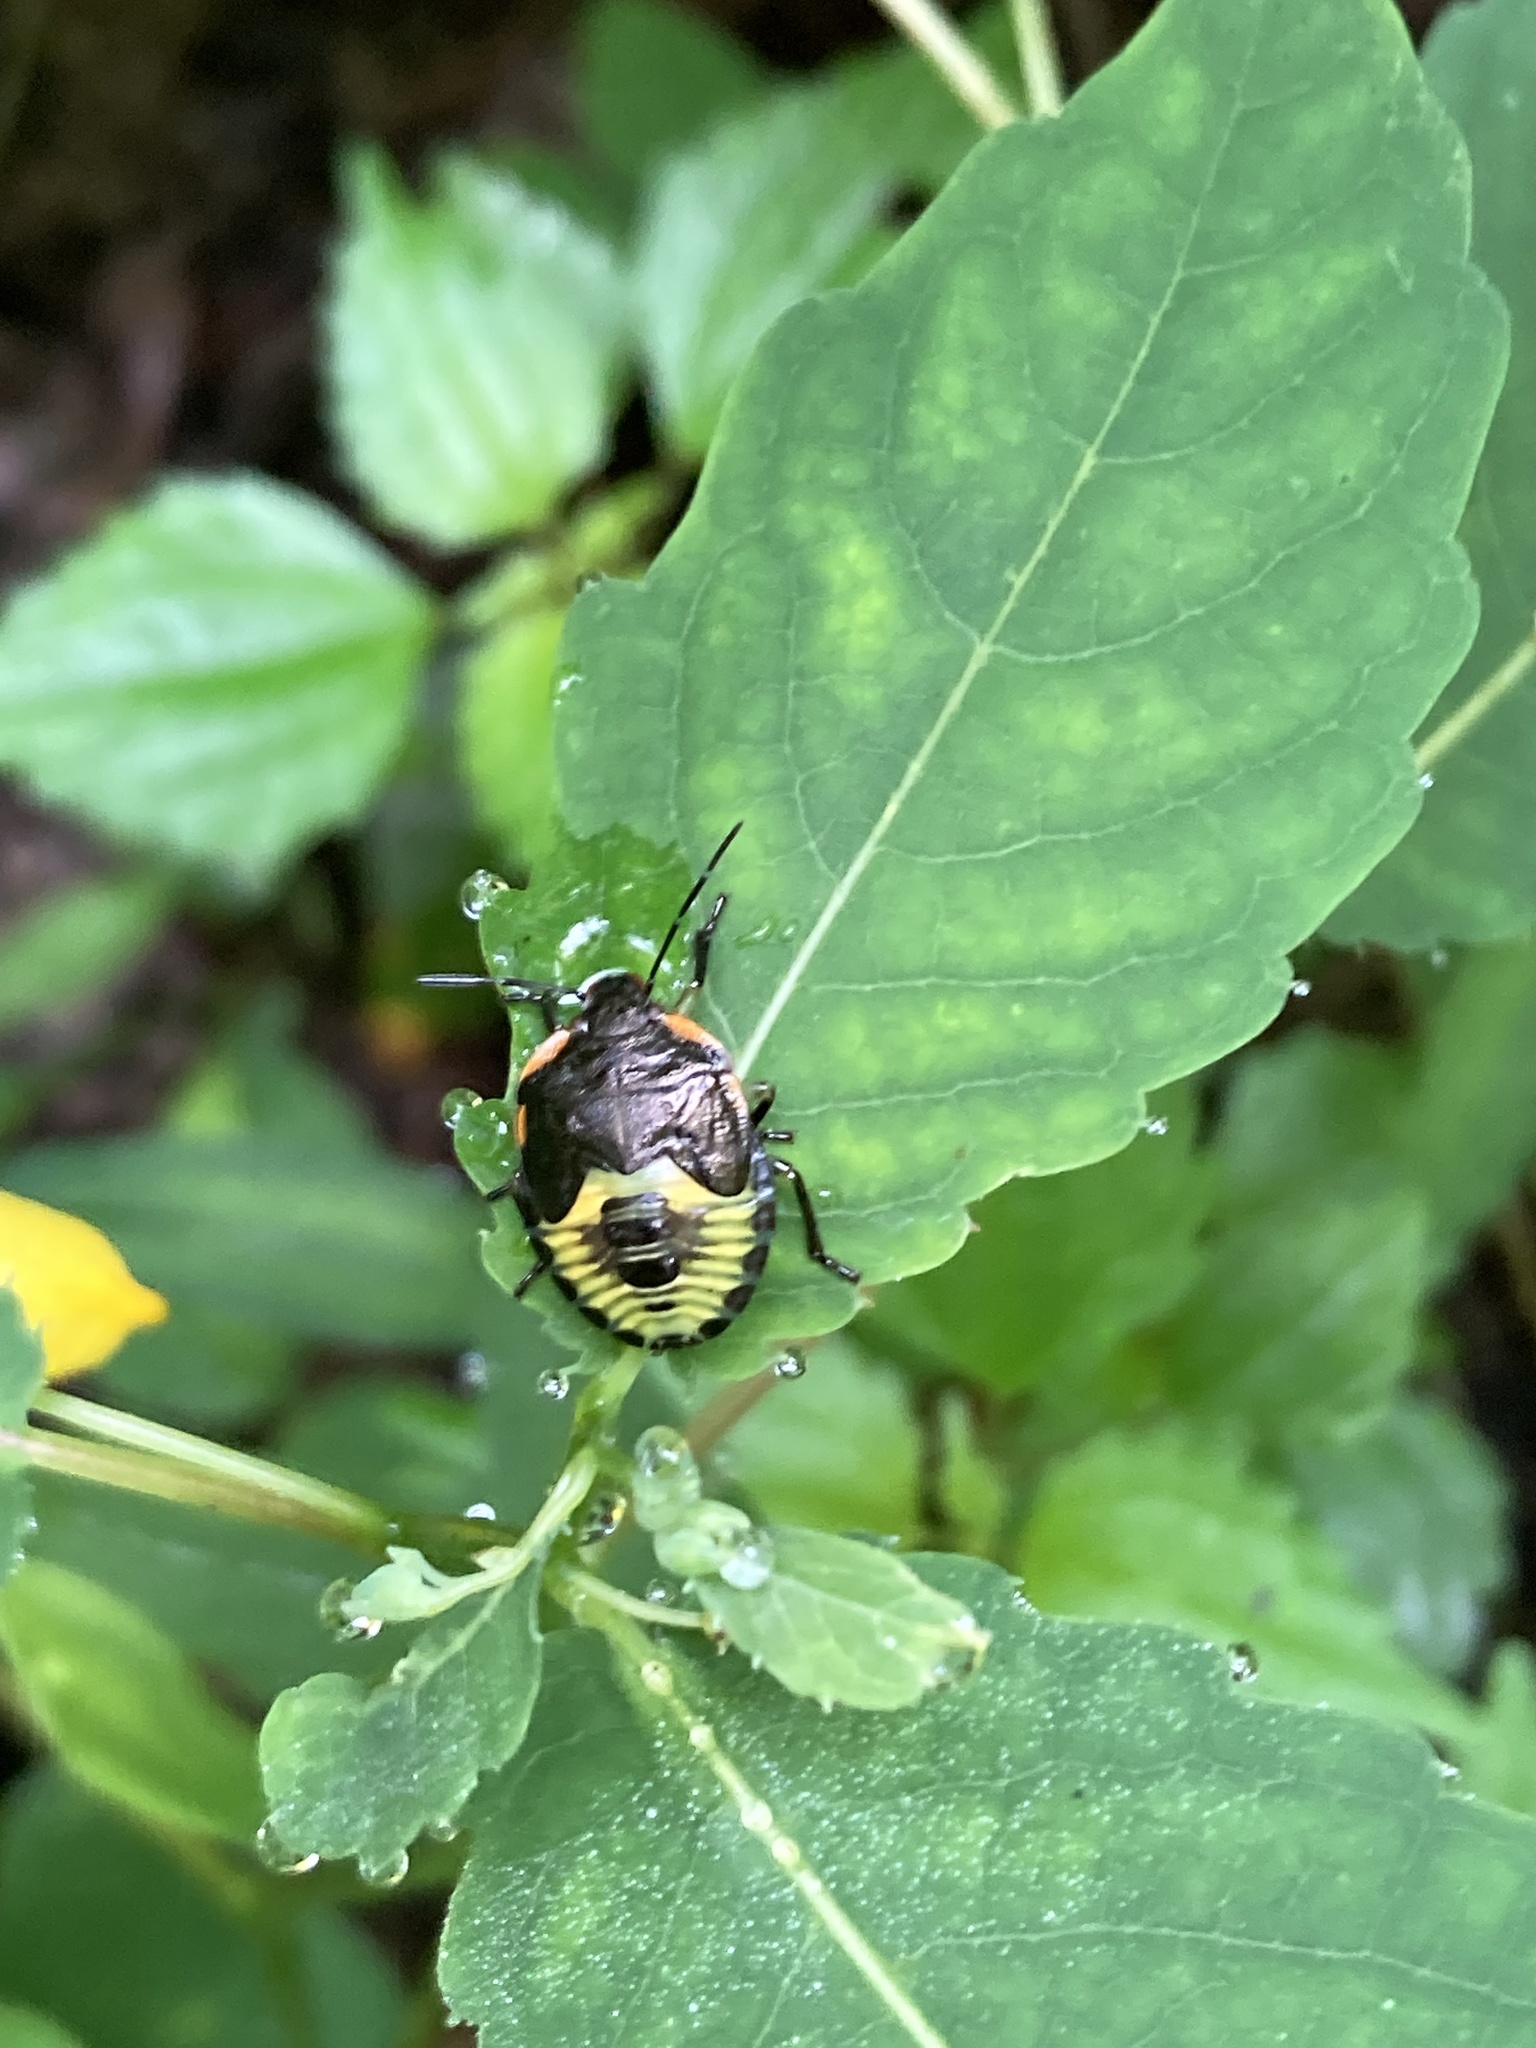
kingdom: Animalia
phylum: Arthropoda
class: Insecta
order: Hemiptera
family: Pentatomidae
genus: Chinavia
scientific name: Chinavia hilaris
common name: Green stink bug
